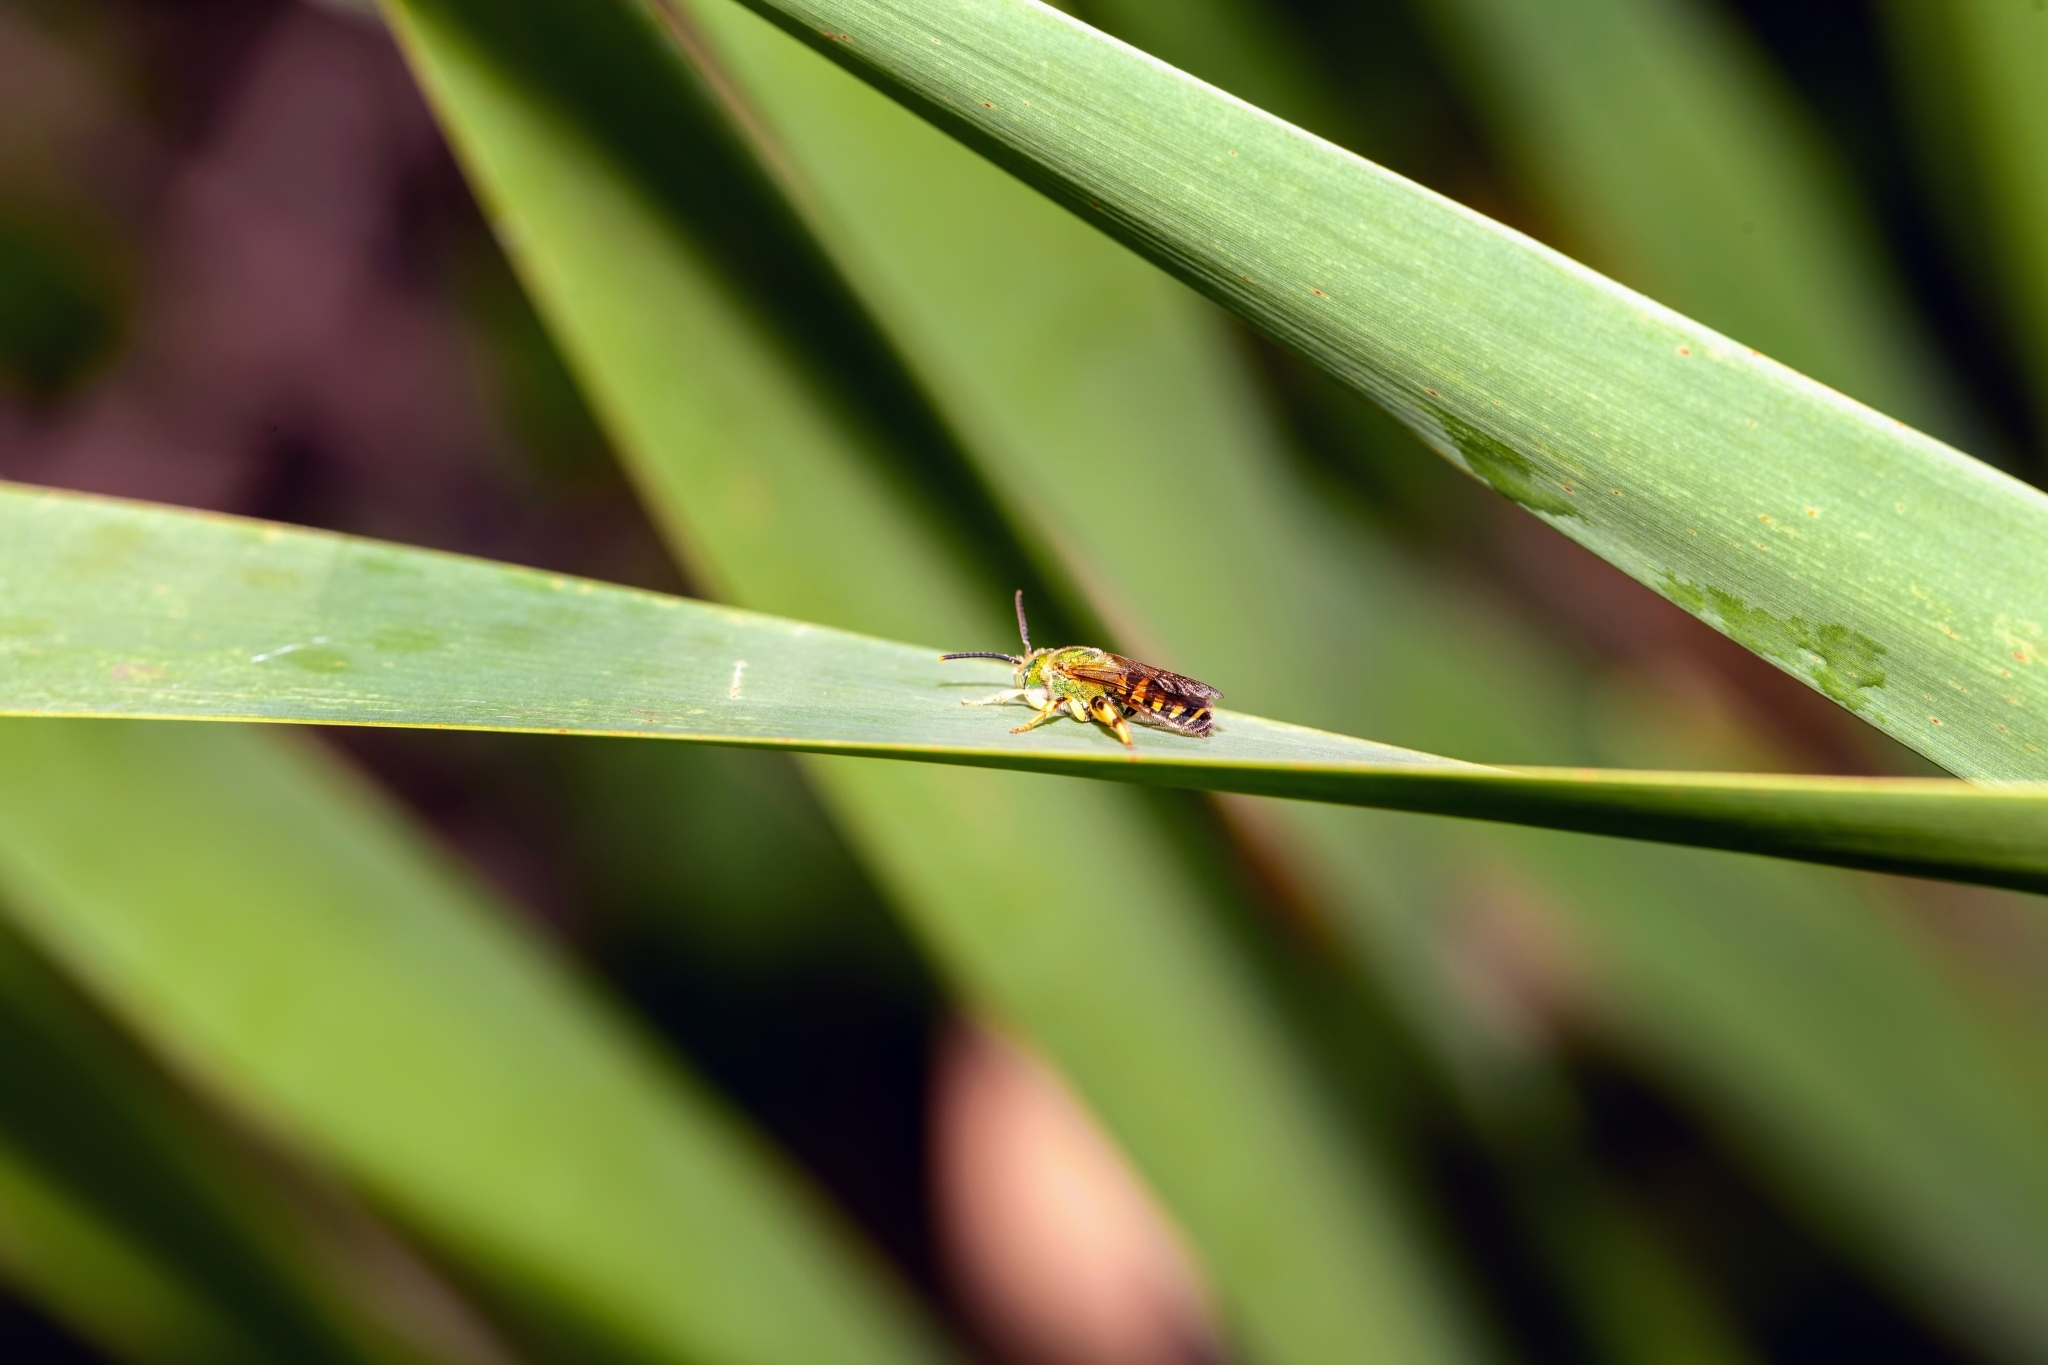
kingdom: Animalia
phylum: Arthropoda
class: Insecta
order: Hymenoptera
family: Halictidae
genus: Agapostemon
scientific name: Agapostemon splendens
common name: Brown-winged striped sweat bee
